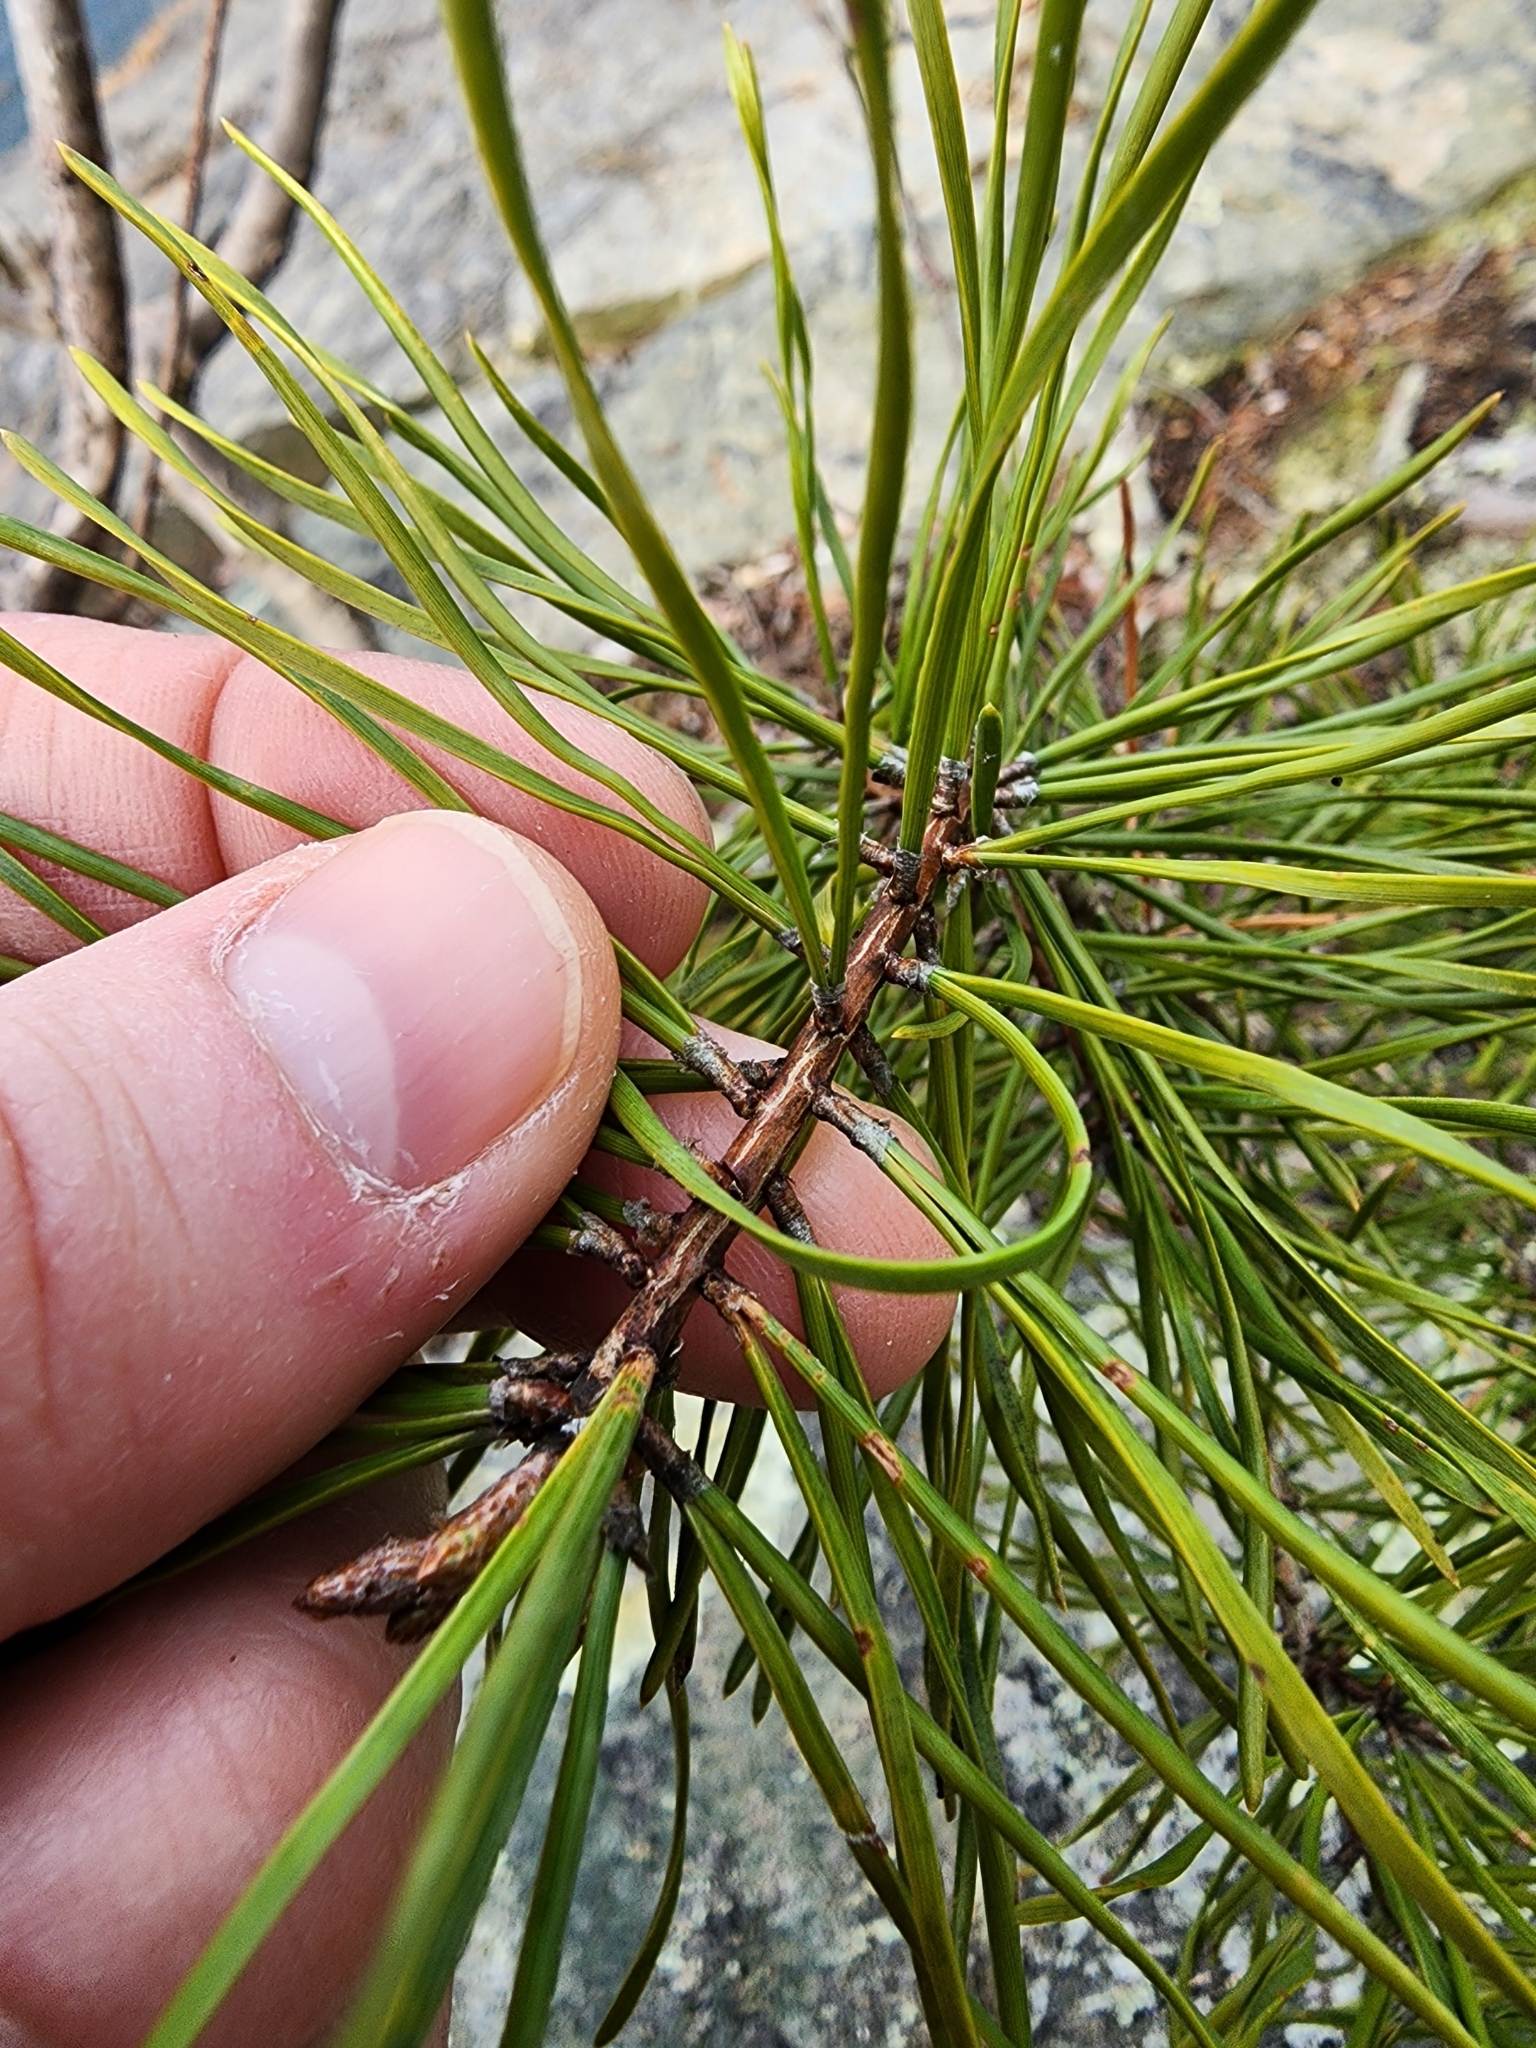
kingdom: Plantae
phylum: Tracheophyta
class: Pinopsida
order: Pinales
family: Pinaceae
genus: Pinus
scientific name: Pinus virginiana
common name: Scrub pine
